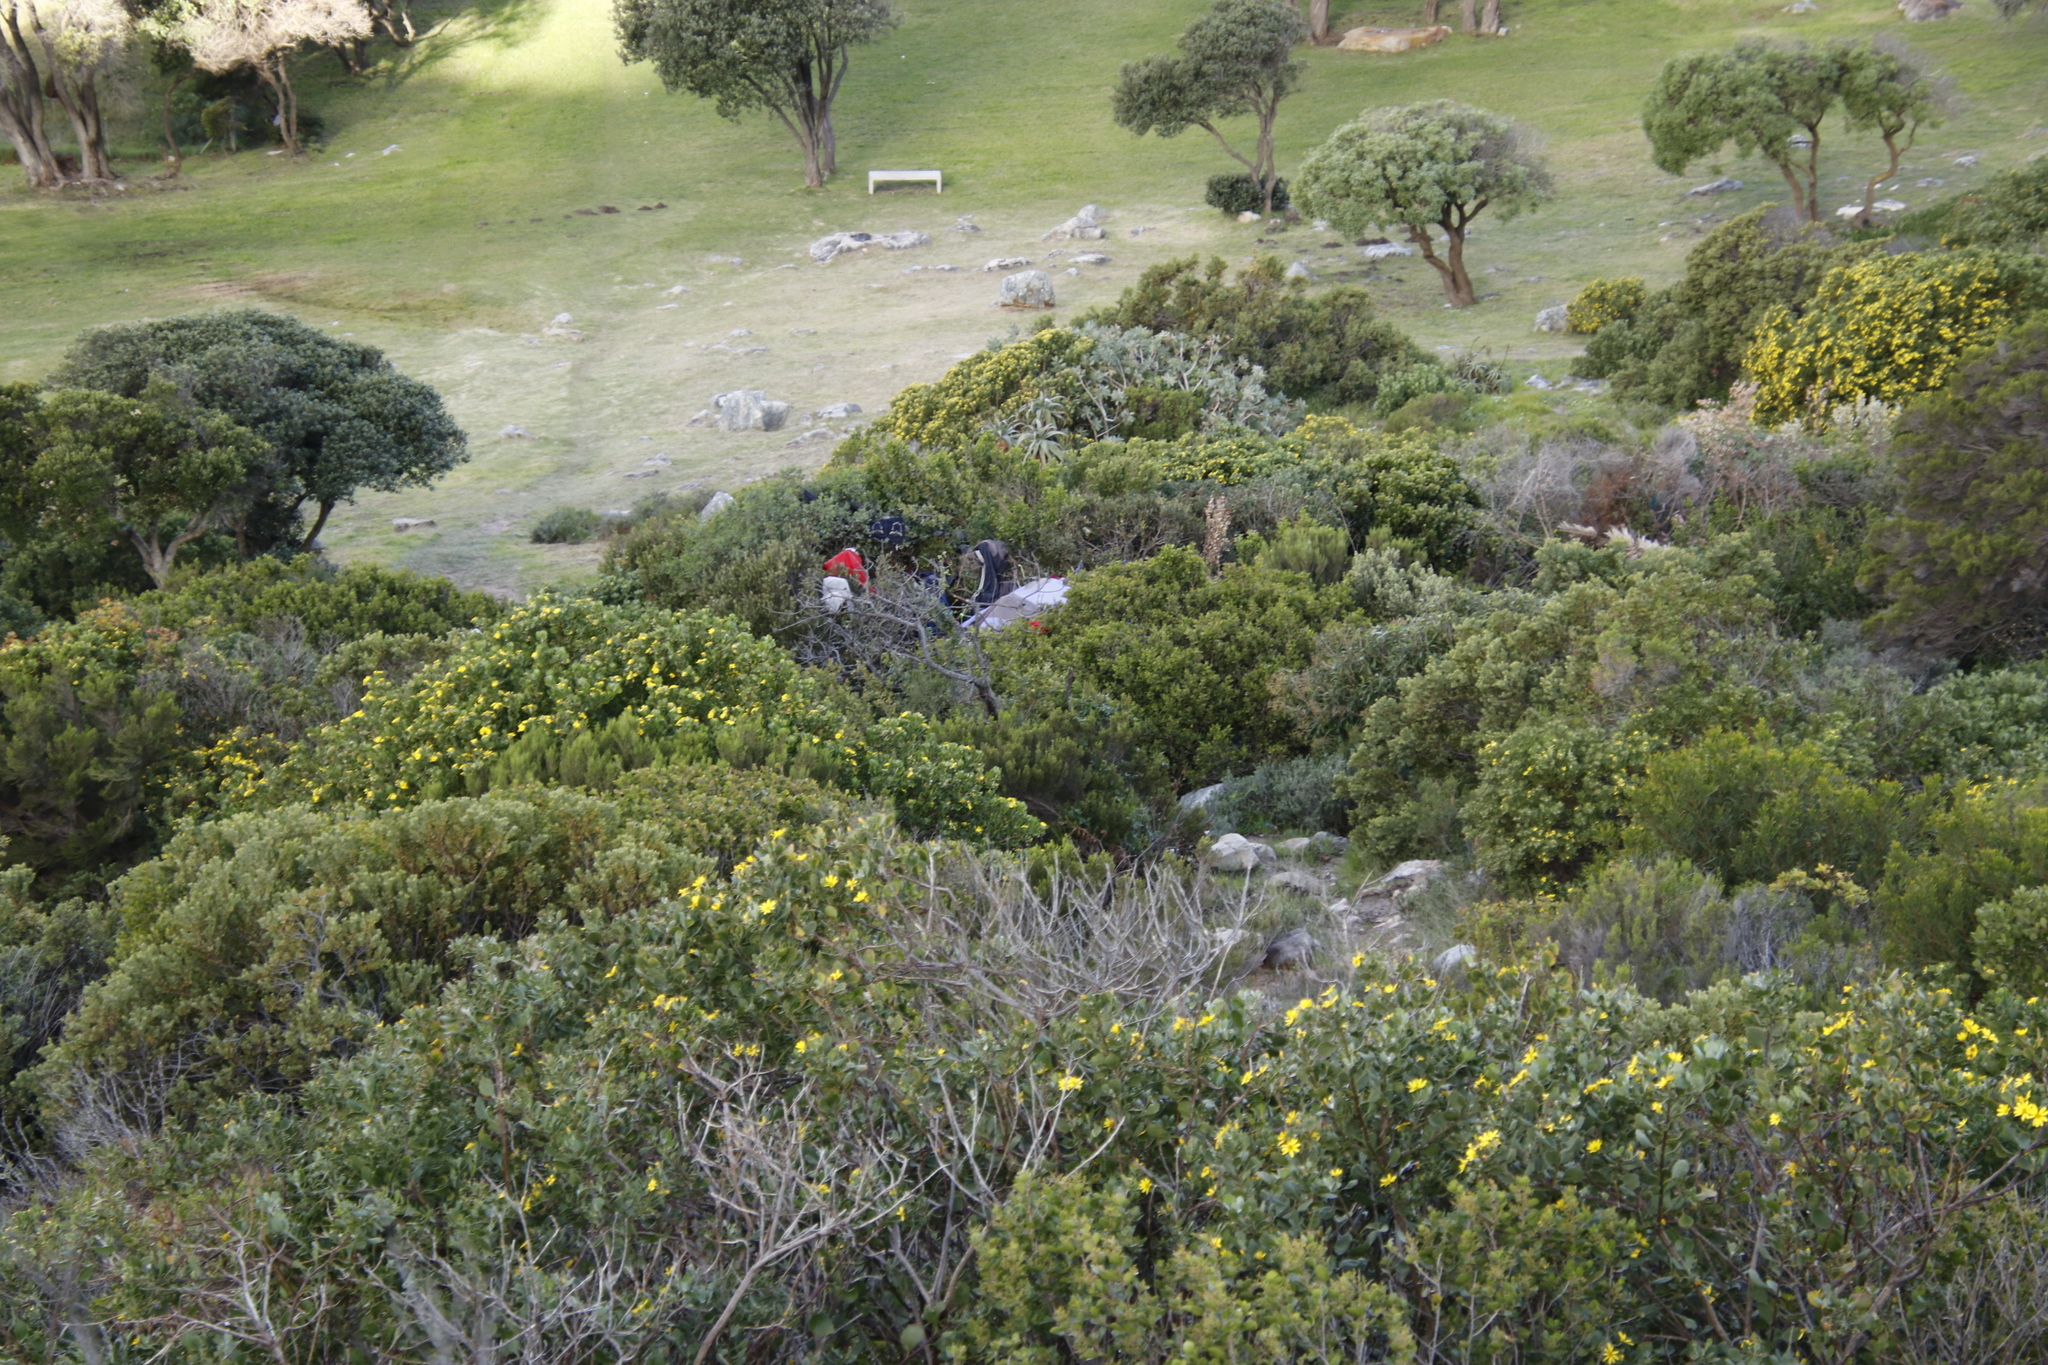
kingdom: Plantae
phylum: Tracheophyta
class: Magnoliopsida
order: Asterales
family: Asteraceae
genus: Osteospermum
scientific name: Osteospermum moniliferum
